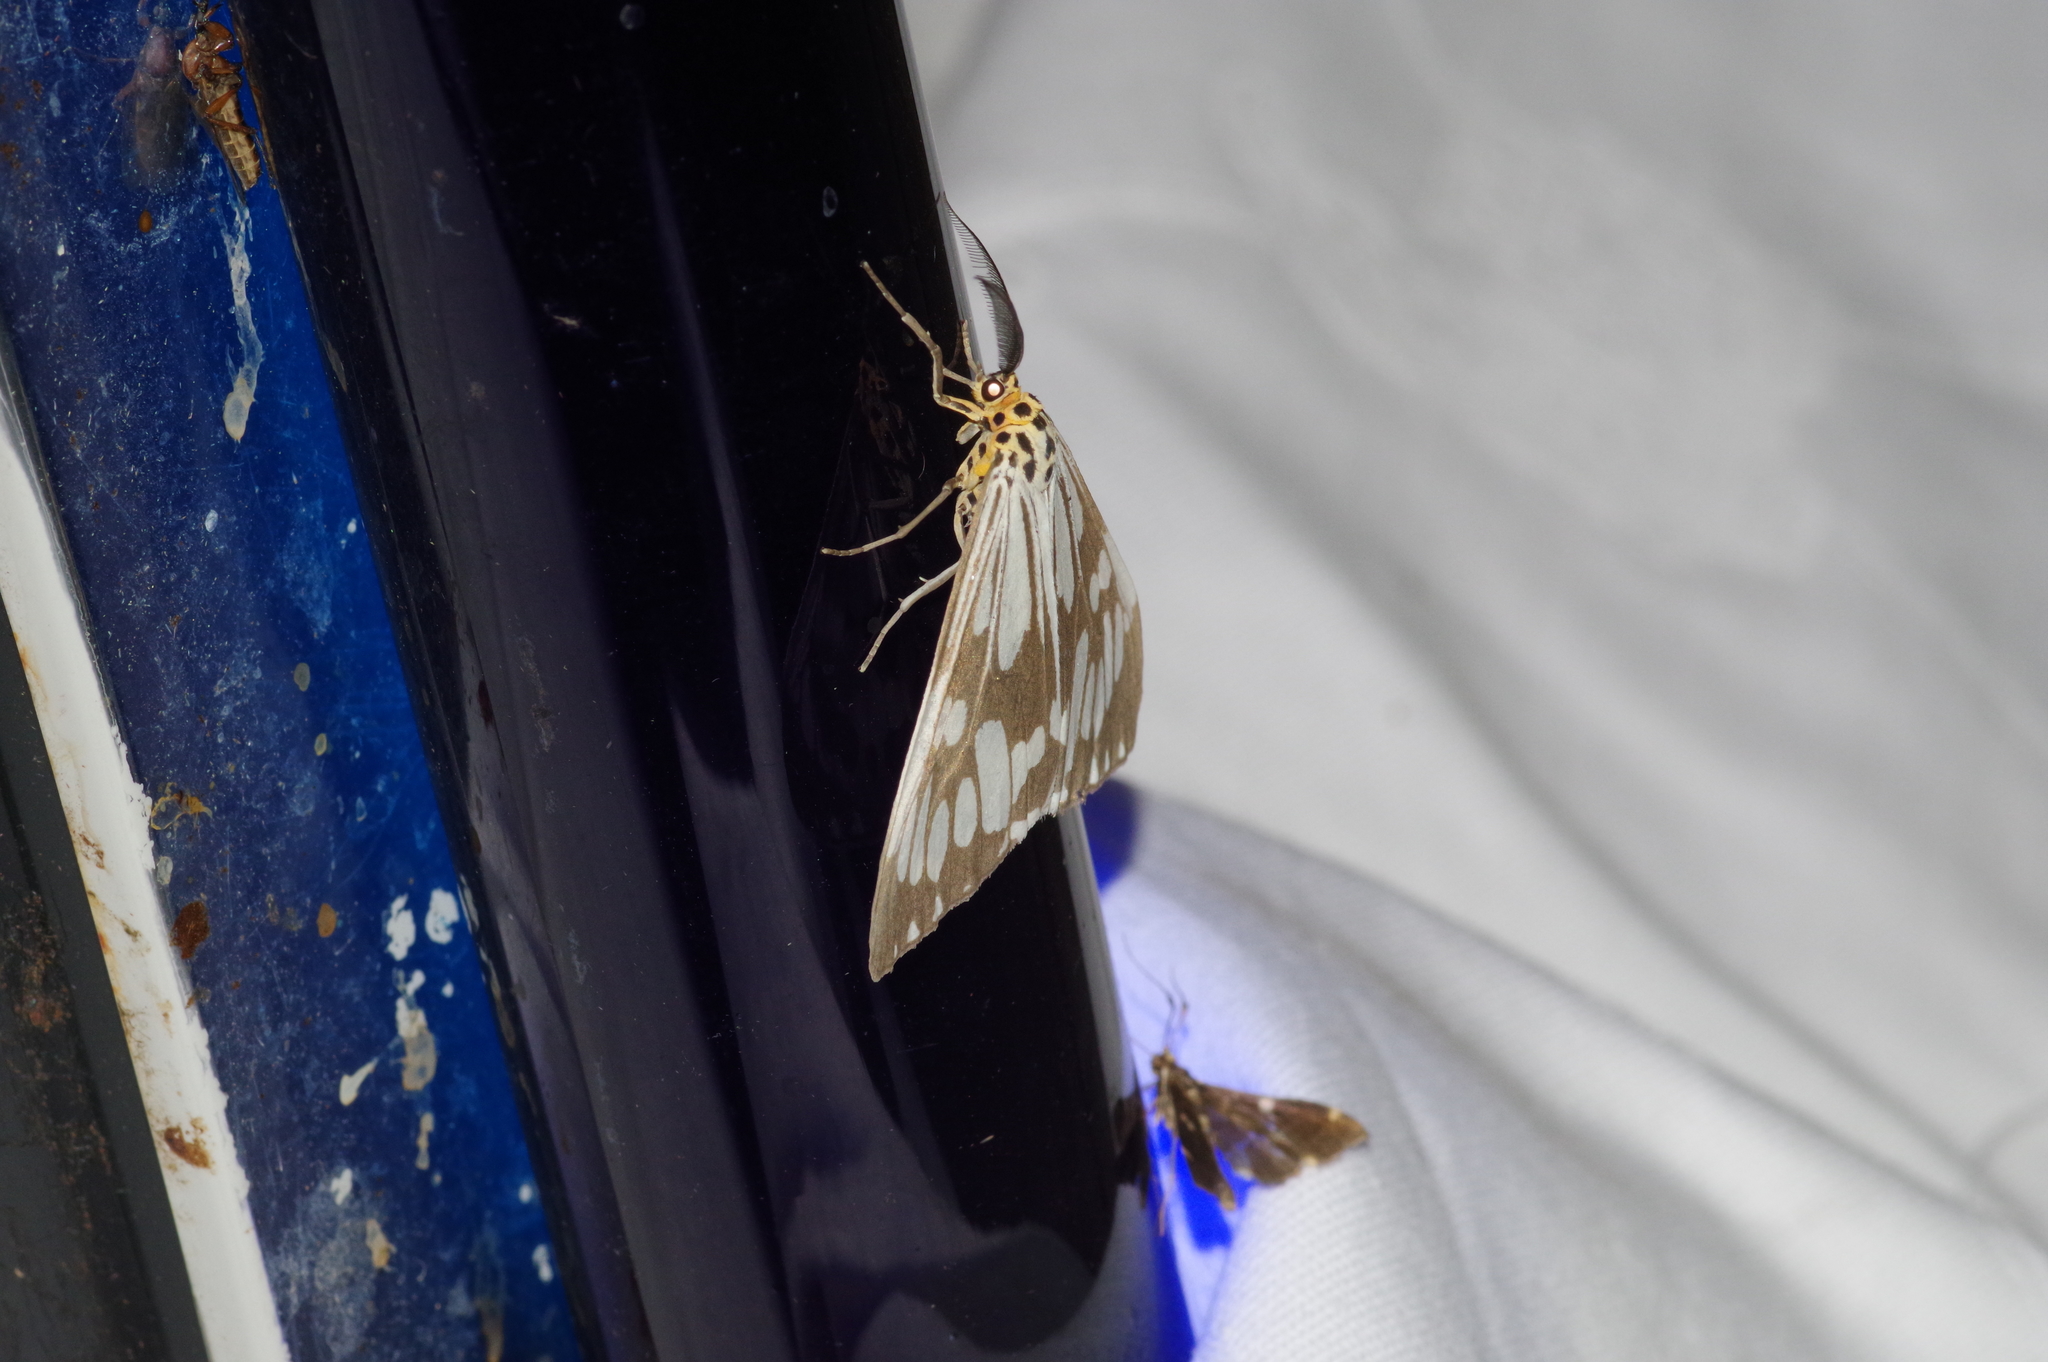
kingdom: Animalia
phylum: Arthropoda
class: Insecta
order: Lepidoptera
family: Erebidae
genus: Nyctemera
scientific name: Nyctemera adversata
